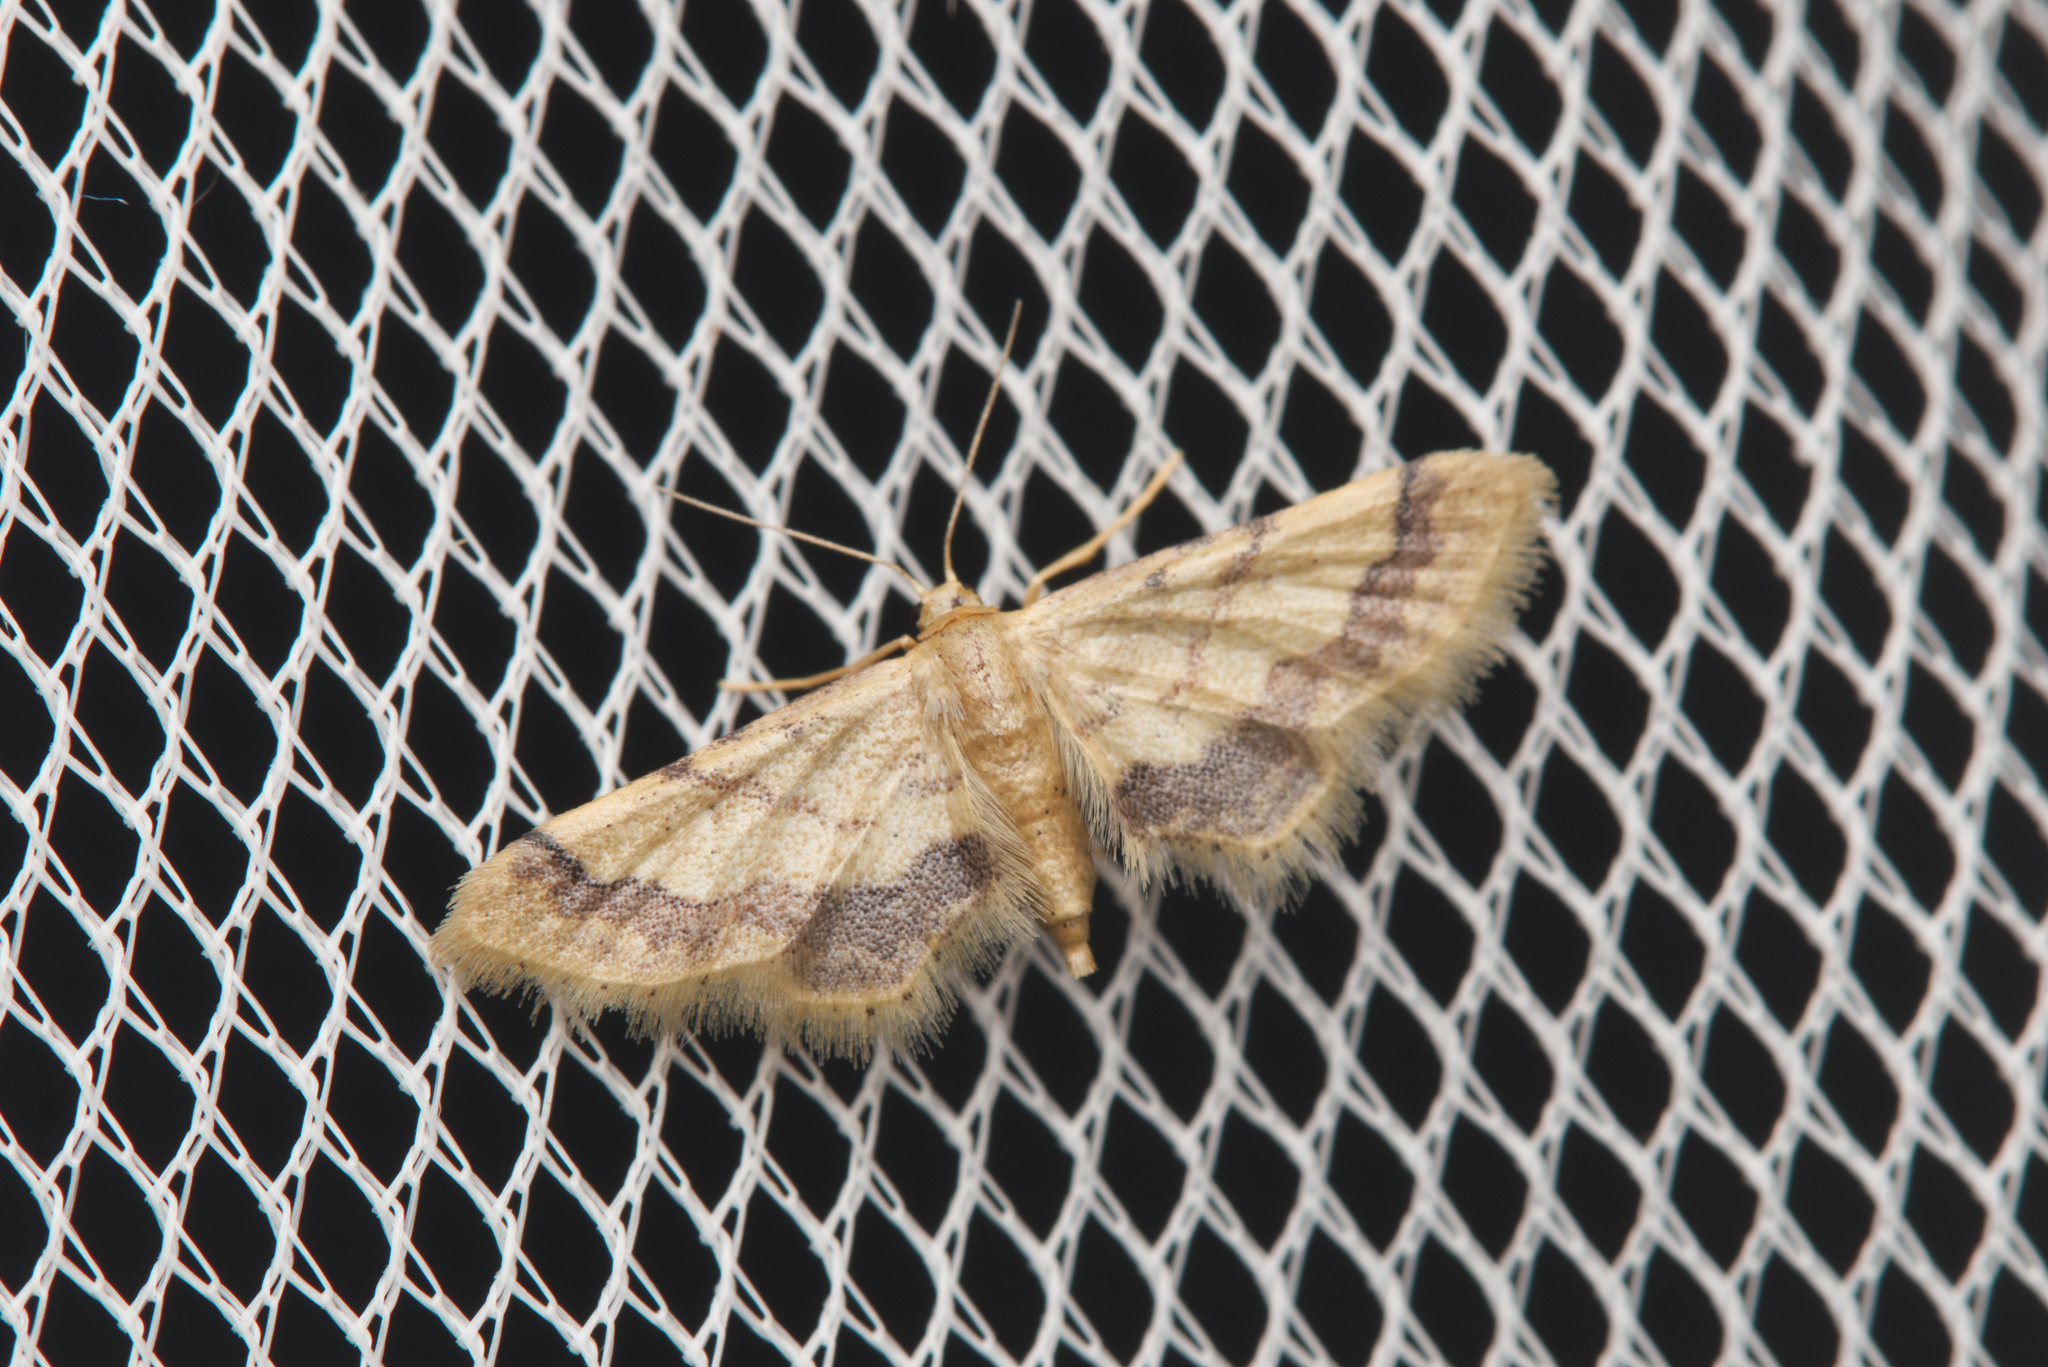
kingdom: Animalia
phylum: Arthropoda
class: Insecta
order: Lepidoptera
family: Geometridae
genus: Idaea
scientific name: Idaea trypheropa
